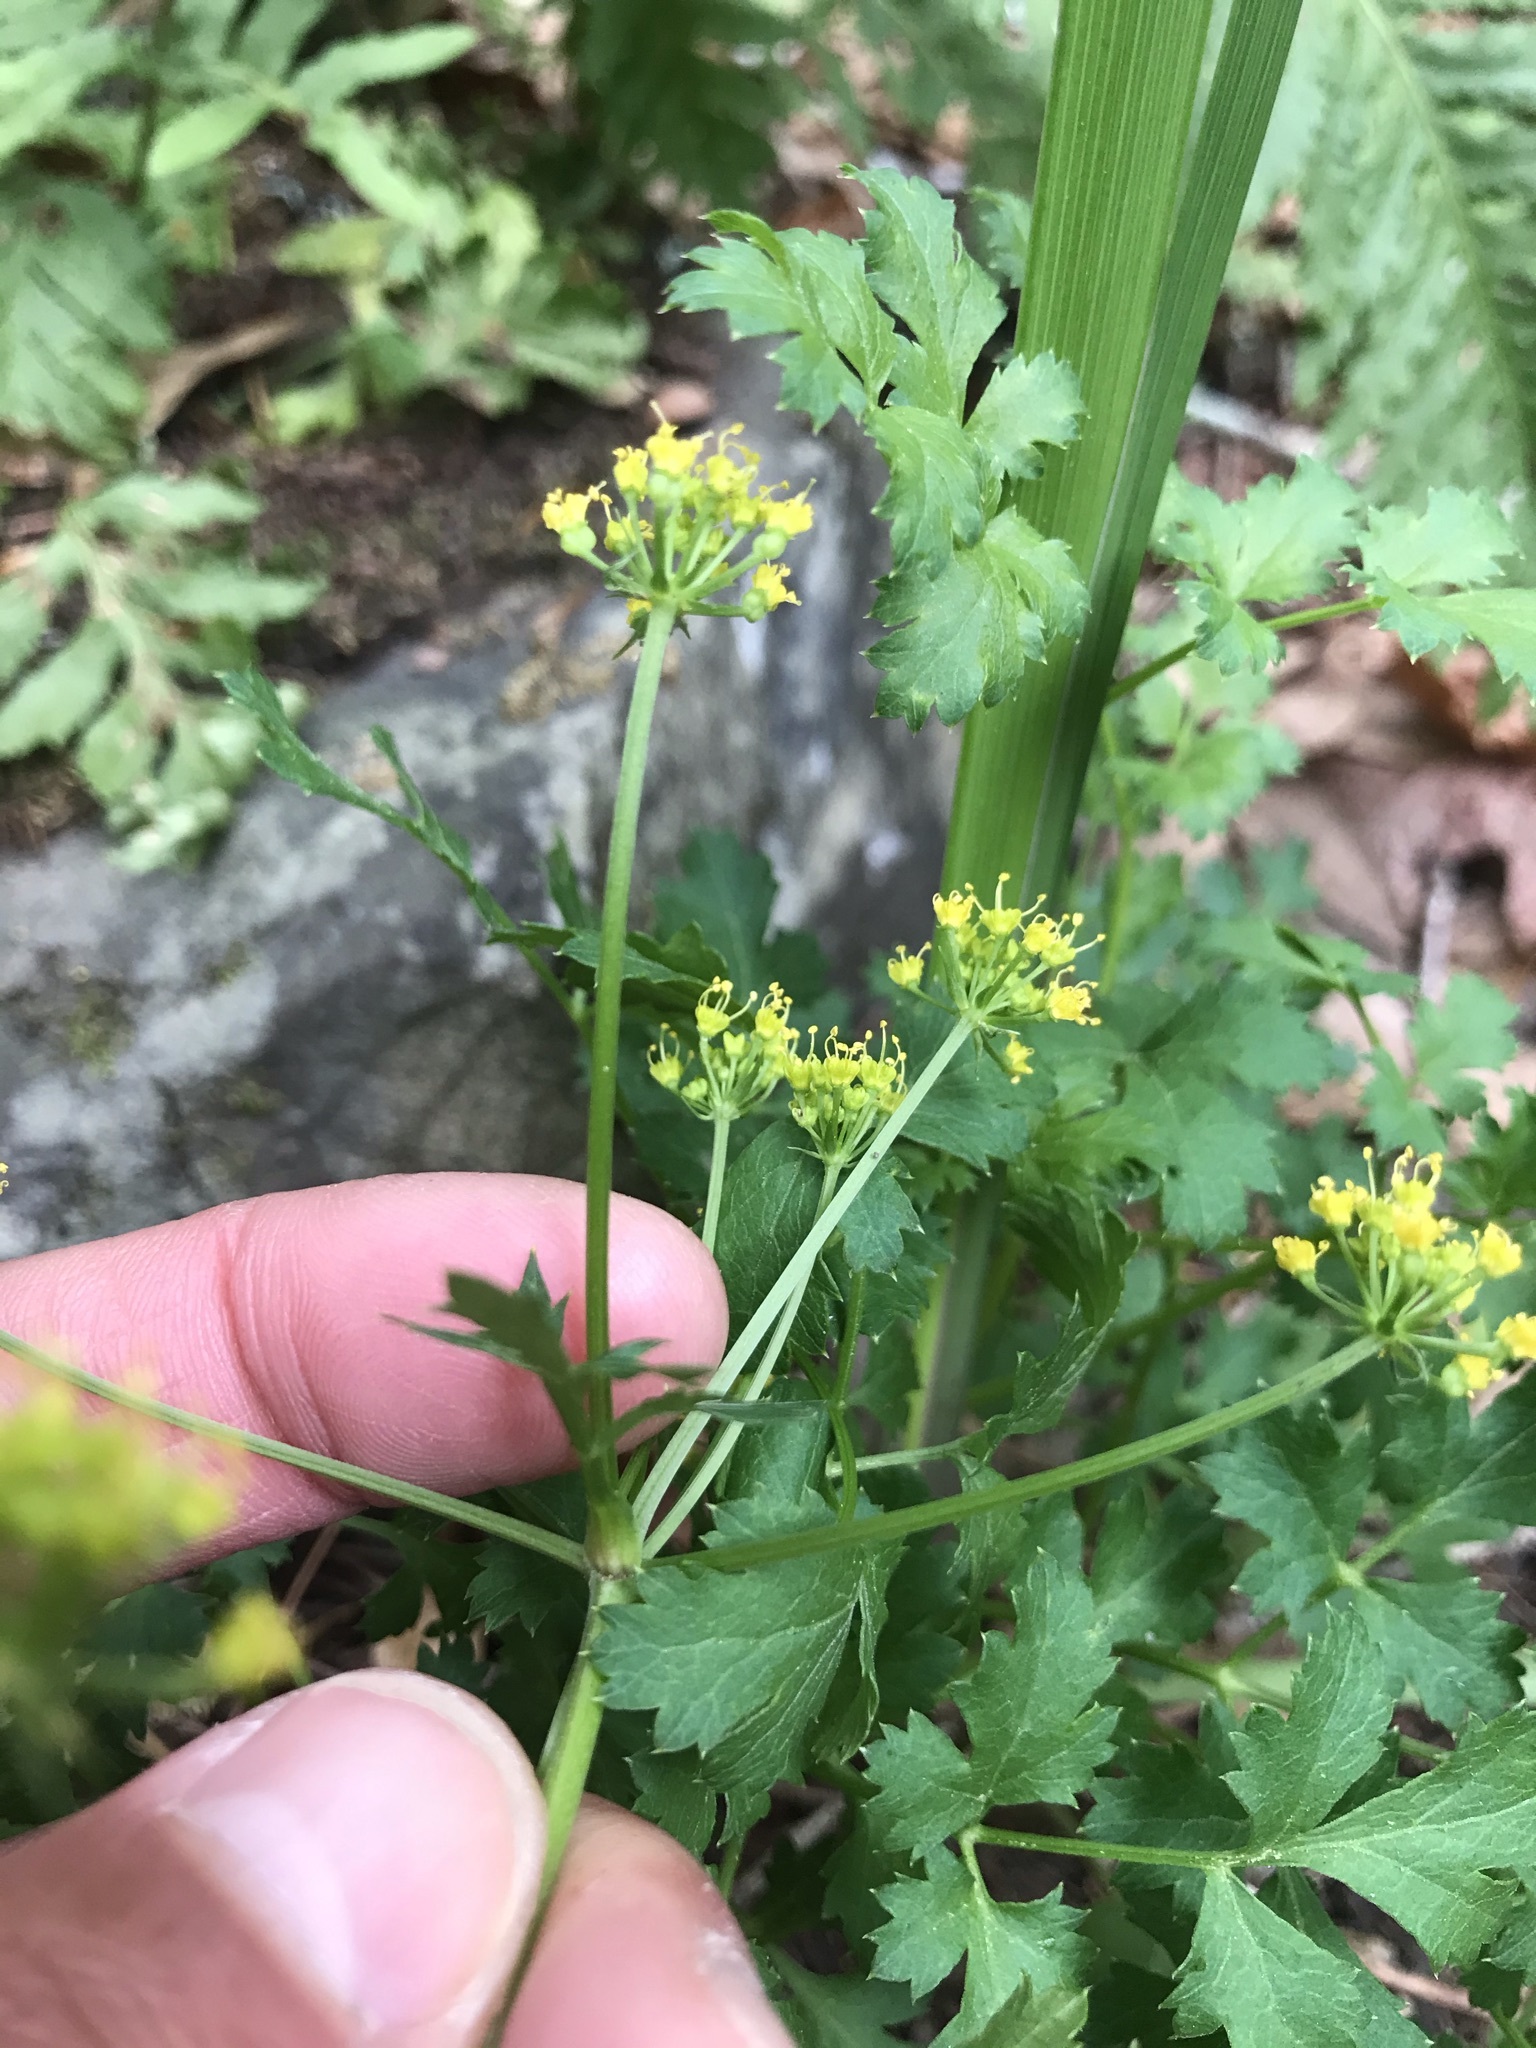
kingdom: Plantae
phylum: Tracheophyta
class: Magnoliopsida
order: Apiales
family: Apiaceae
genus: Tauschia
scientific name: Tauschia kelloggii
